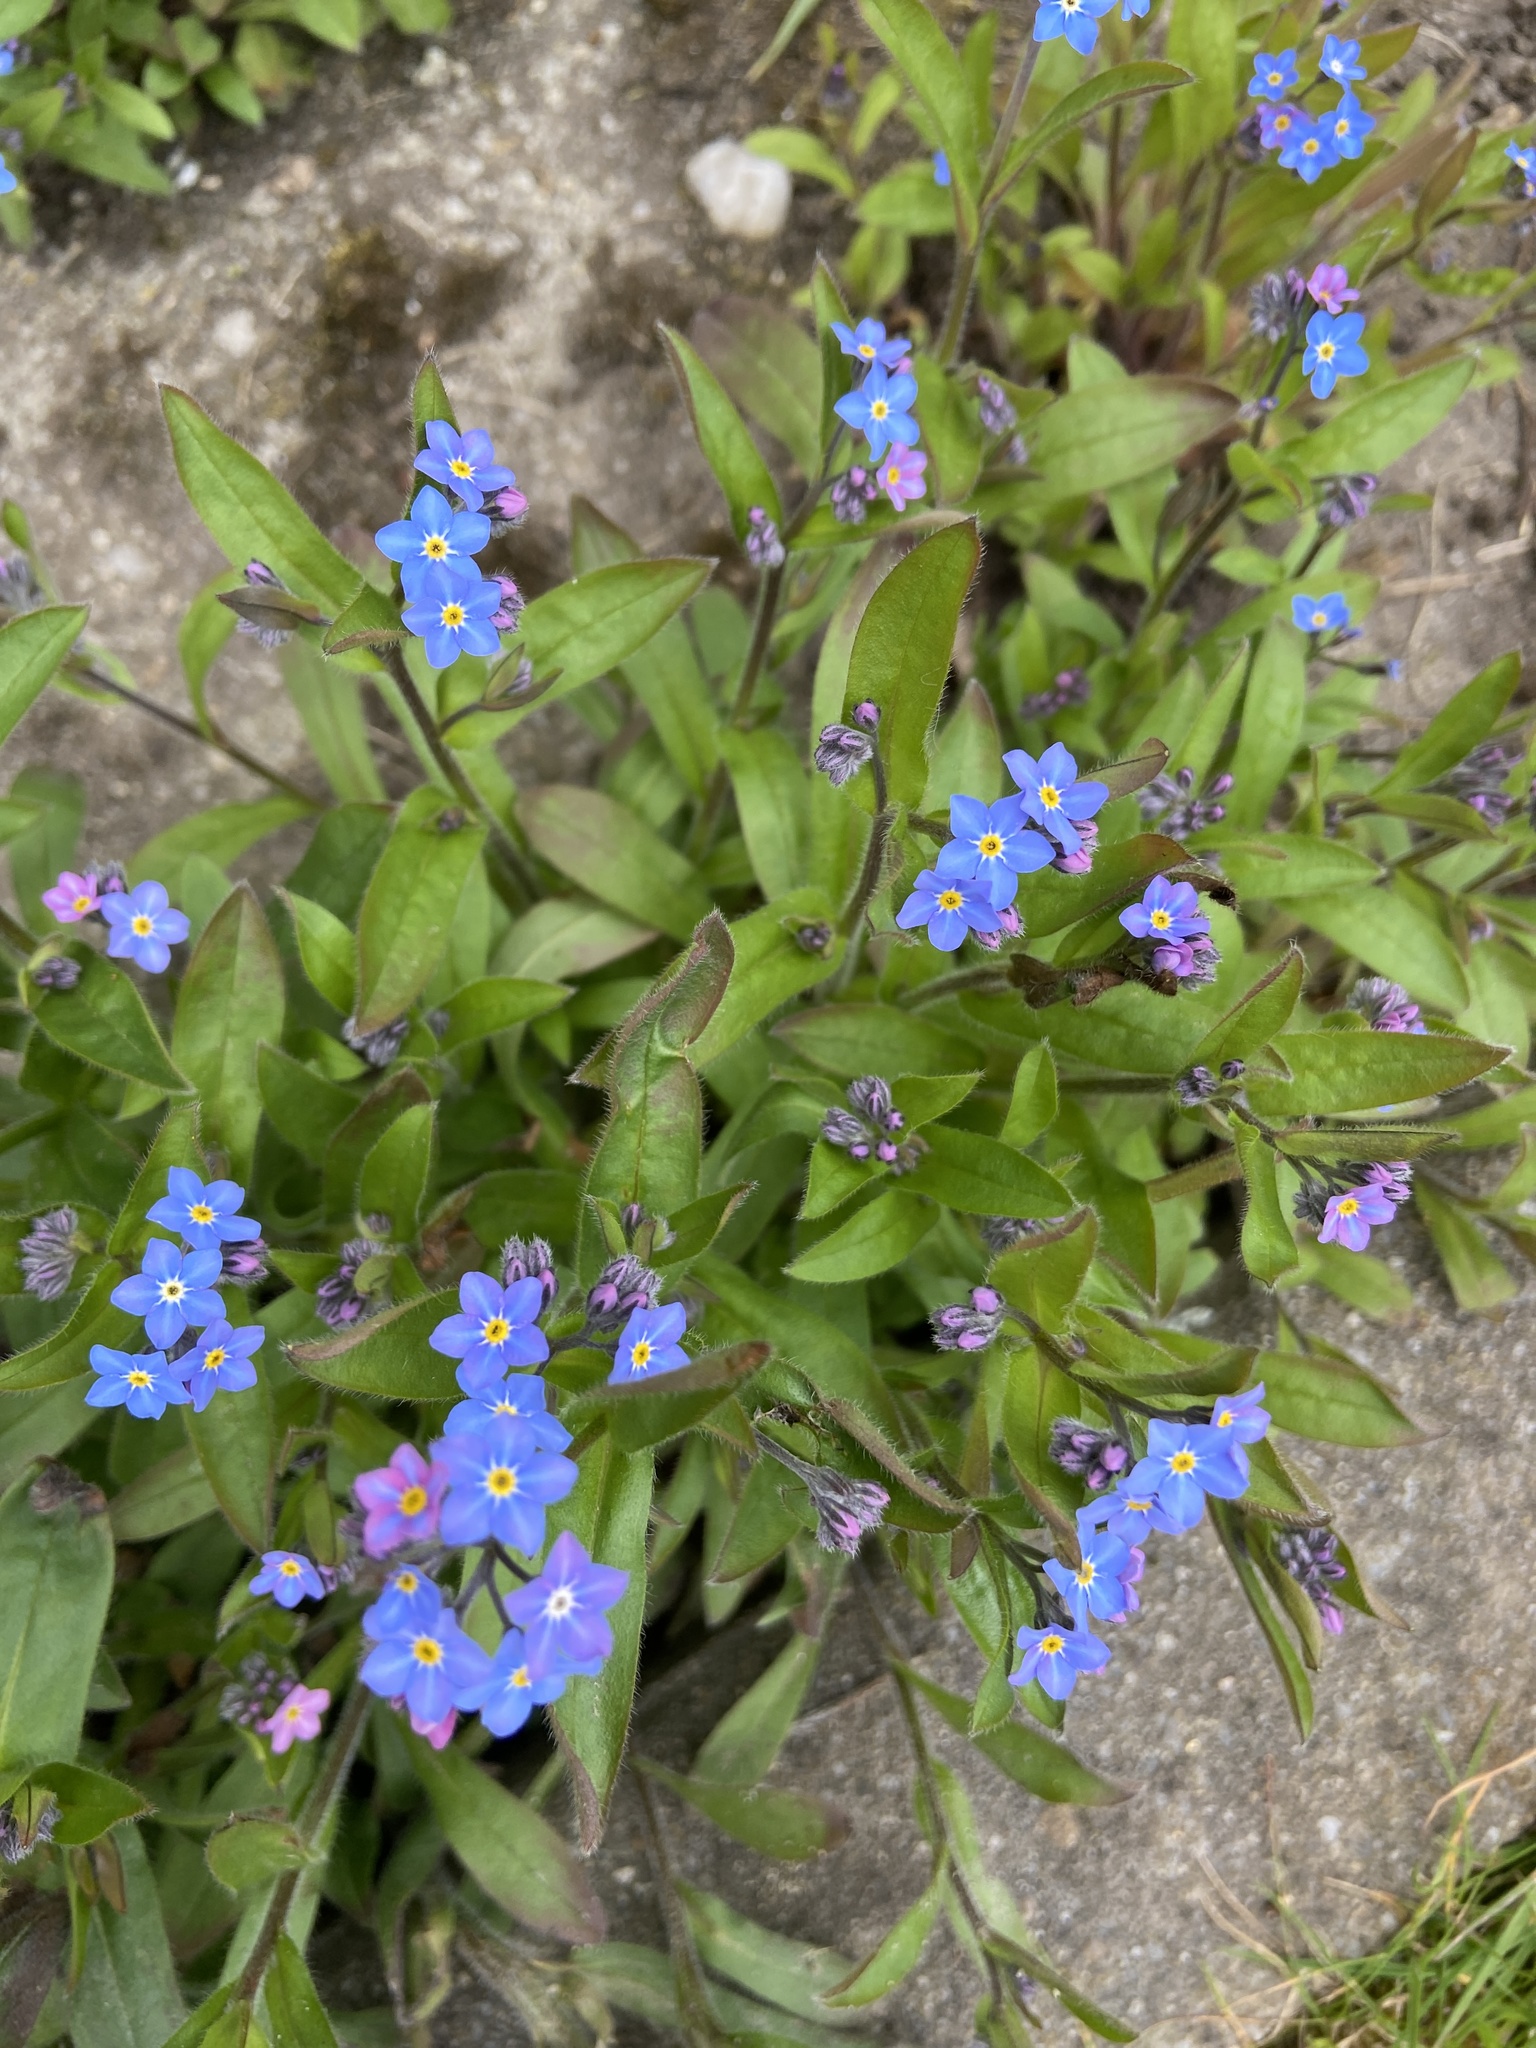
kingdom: Plantae
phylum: Tracheophyta
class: Magnoliopsida
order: Boraginales
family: Boraginaceae
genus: Myosotis
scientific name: Myosotis sylvatica
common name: Wood forget-me-not
